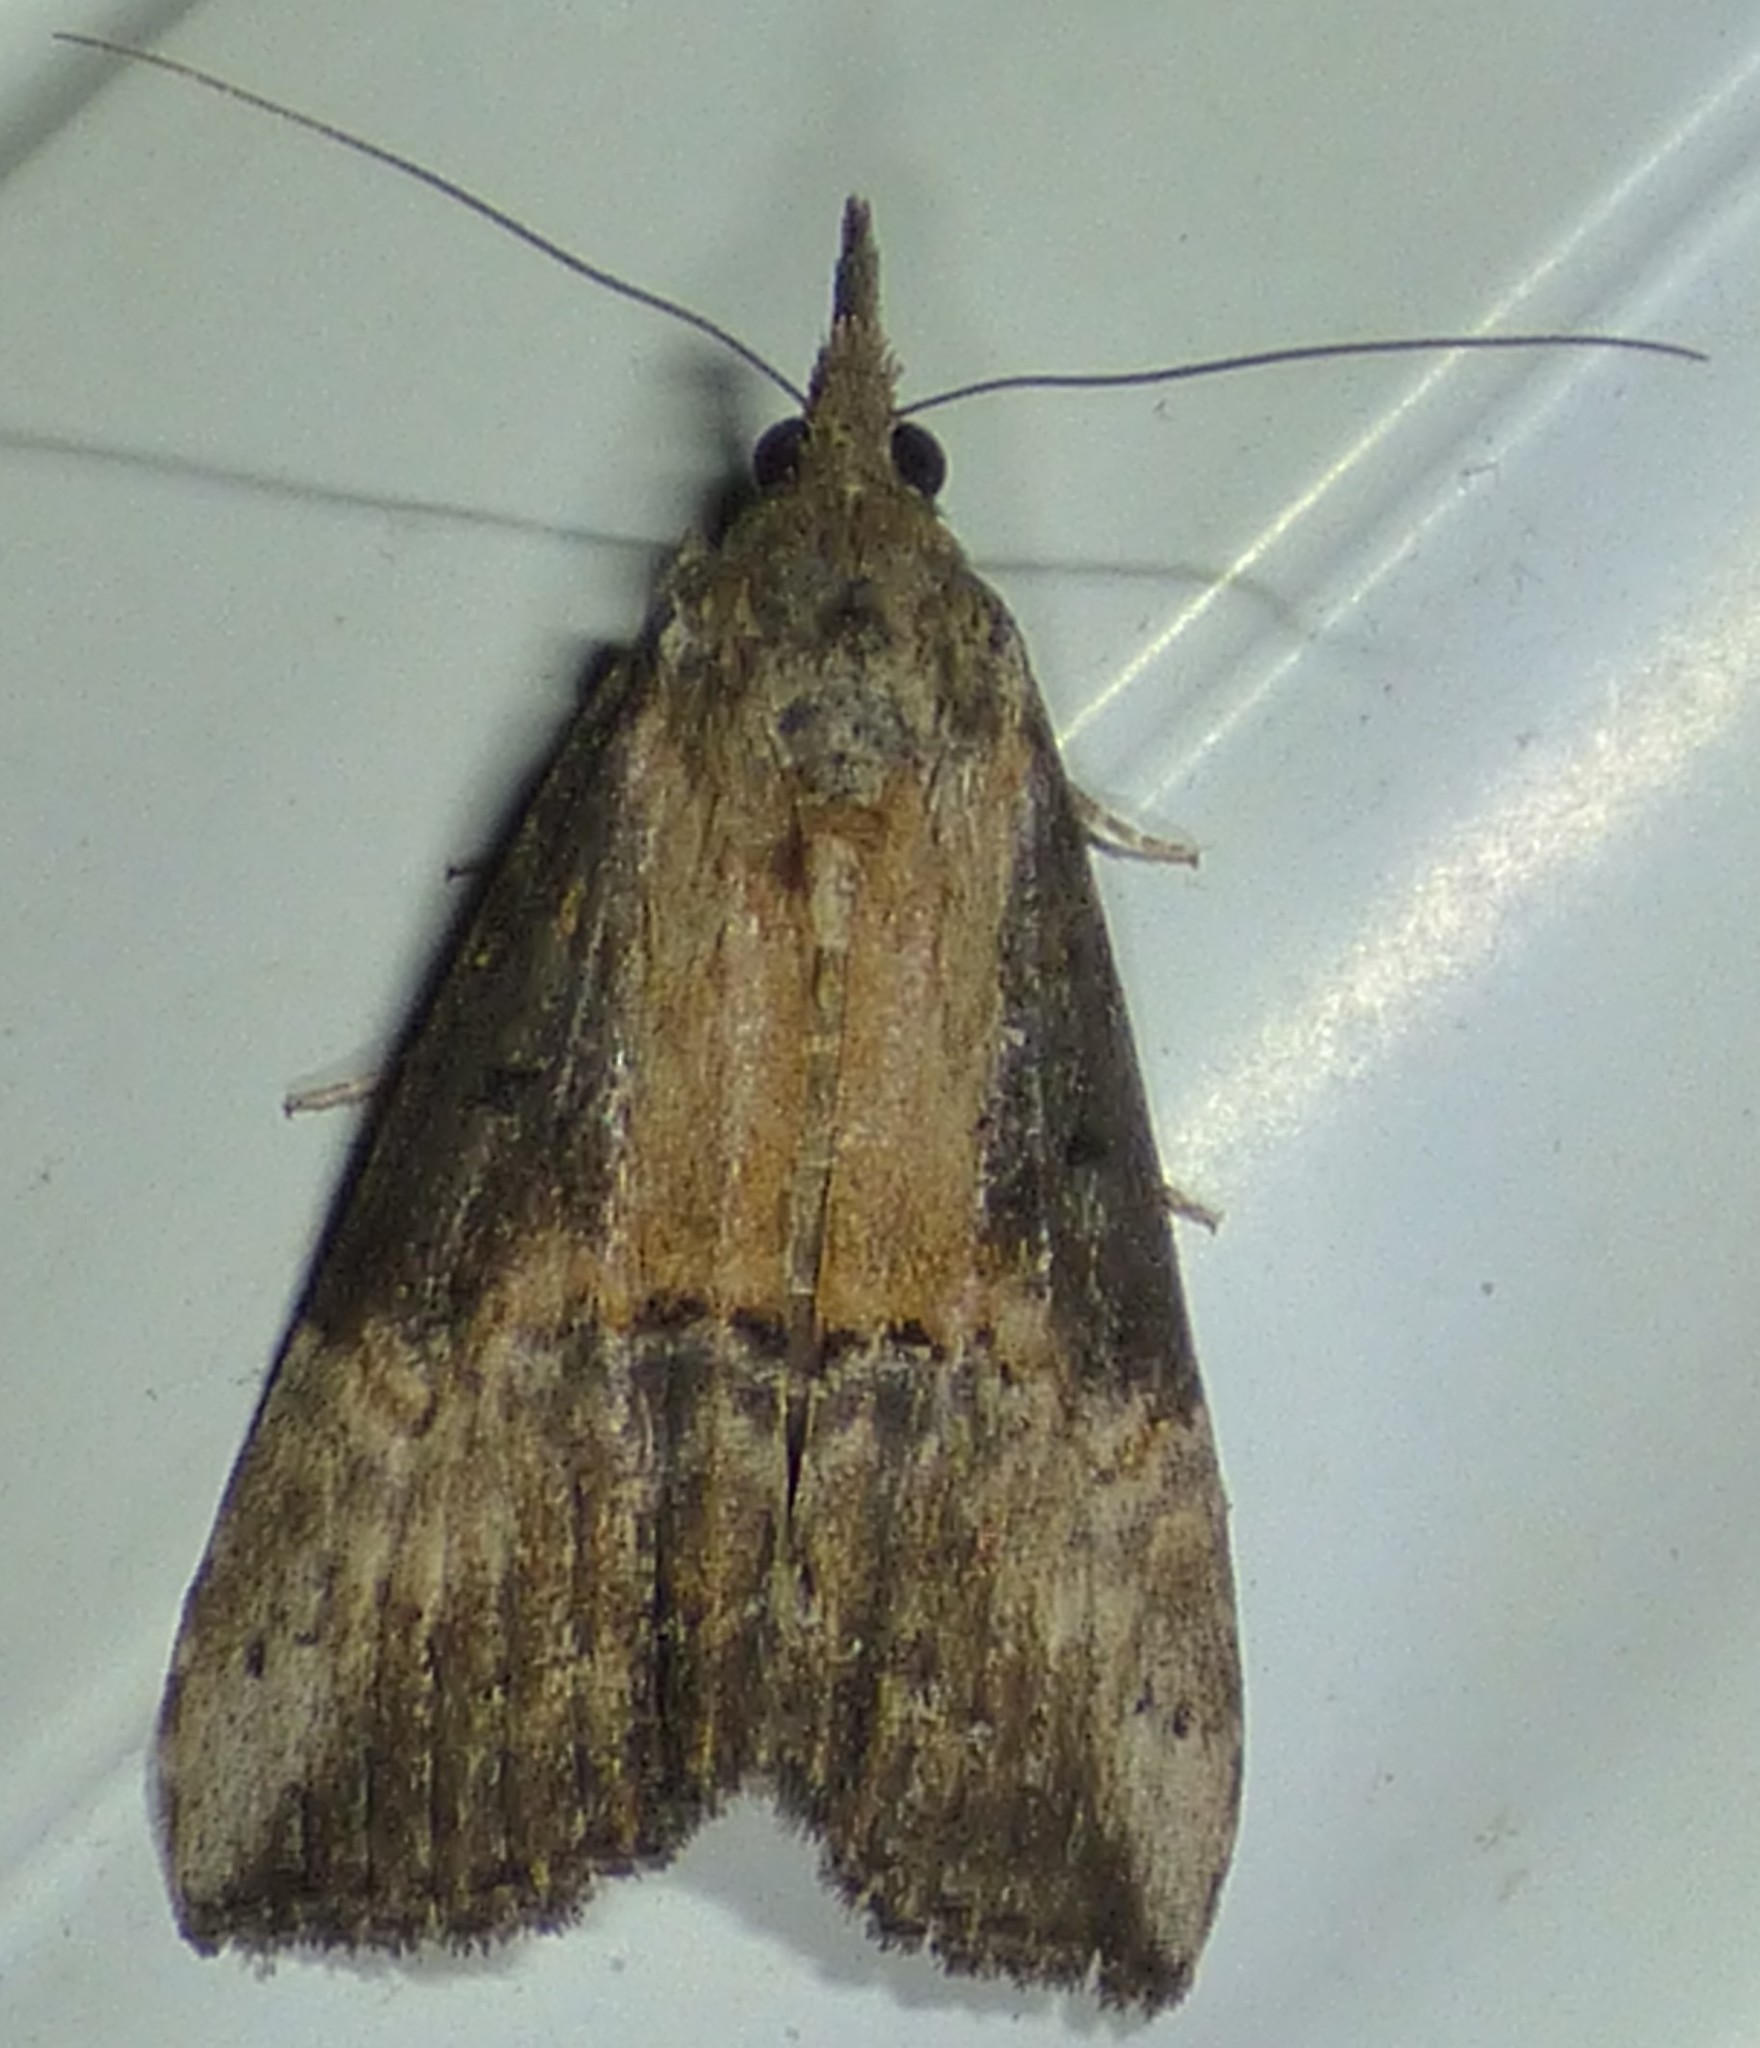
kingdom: Animalia
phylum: Arthropoda
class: Insecta
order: Lepidoptera
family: Erebidae
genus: Hypena
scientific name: Hypena scabra
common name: Green cloverworm
